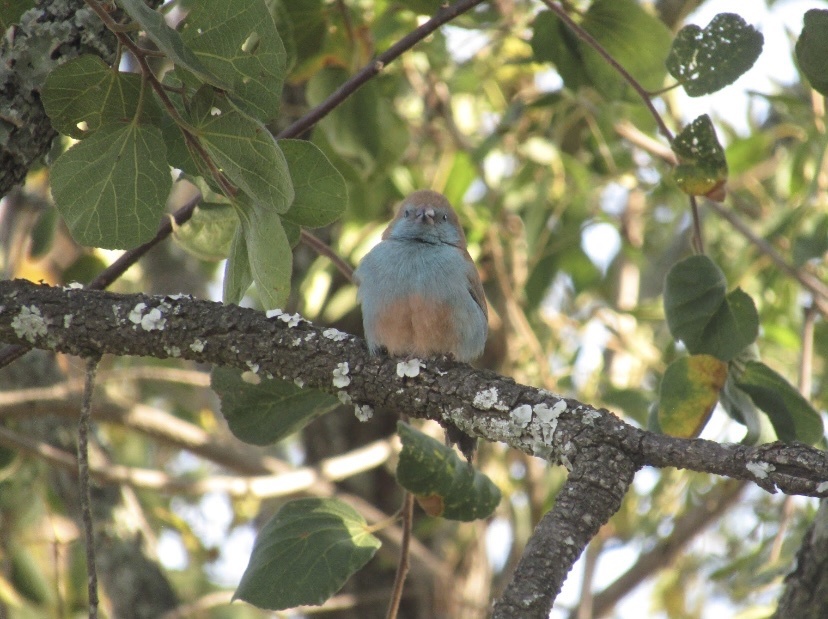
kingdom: Animalia
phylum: Chordata
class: Aves
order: Passeriformes
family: Estrildidae
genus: Uraeginthus
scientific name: Uraeginthus angolensis
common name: Blue waxbill
